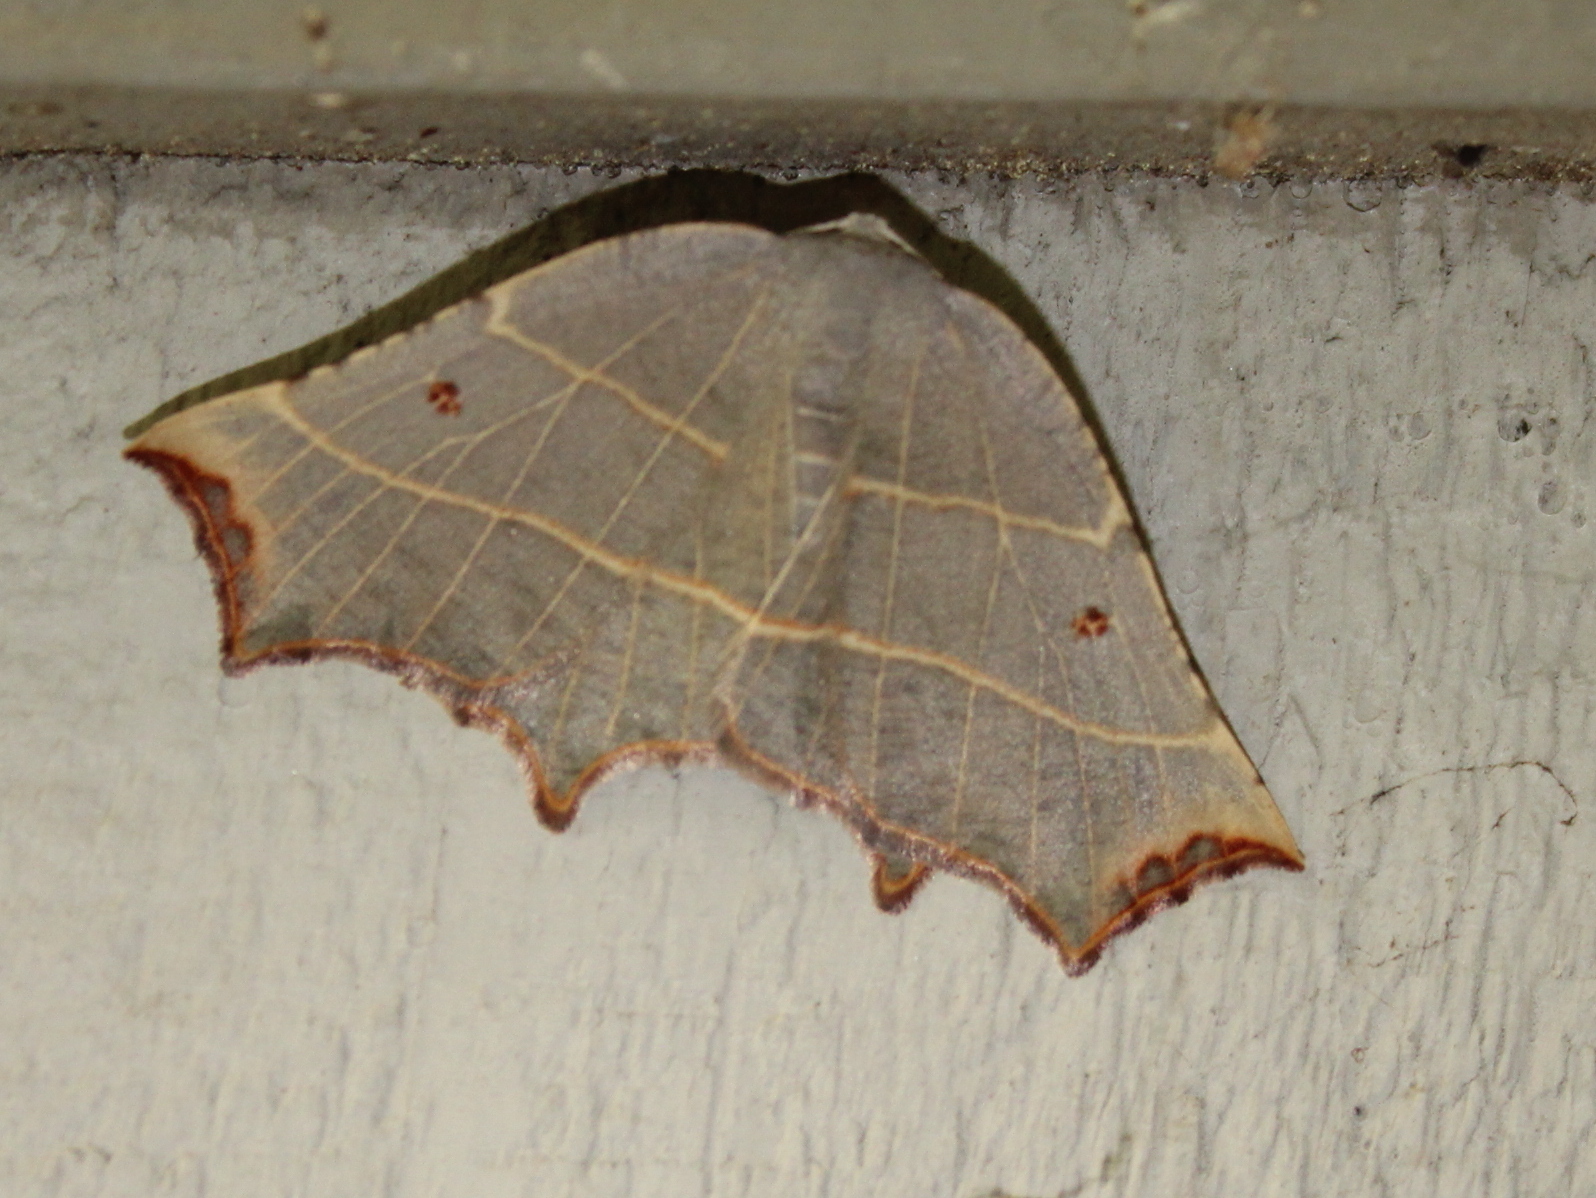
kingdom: Animalia
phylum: Arthropoda
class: Insecta
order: Lepidoptera
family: Geometridae
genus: Metanema
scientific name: Metanema inatomaria
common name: Pale metanema
